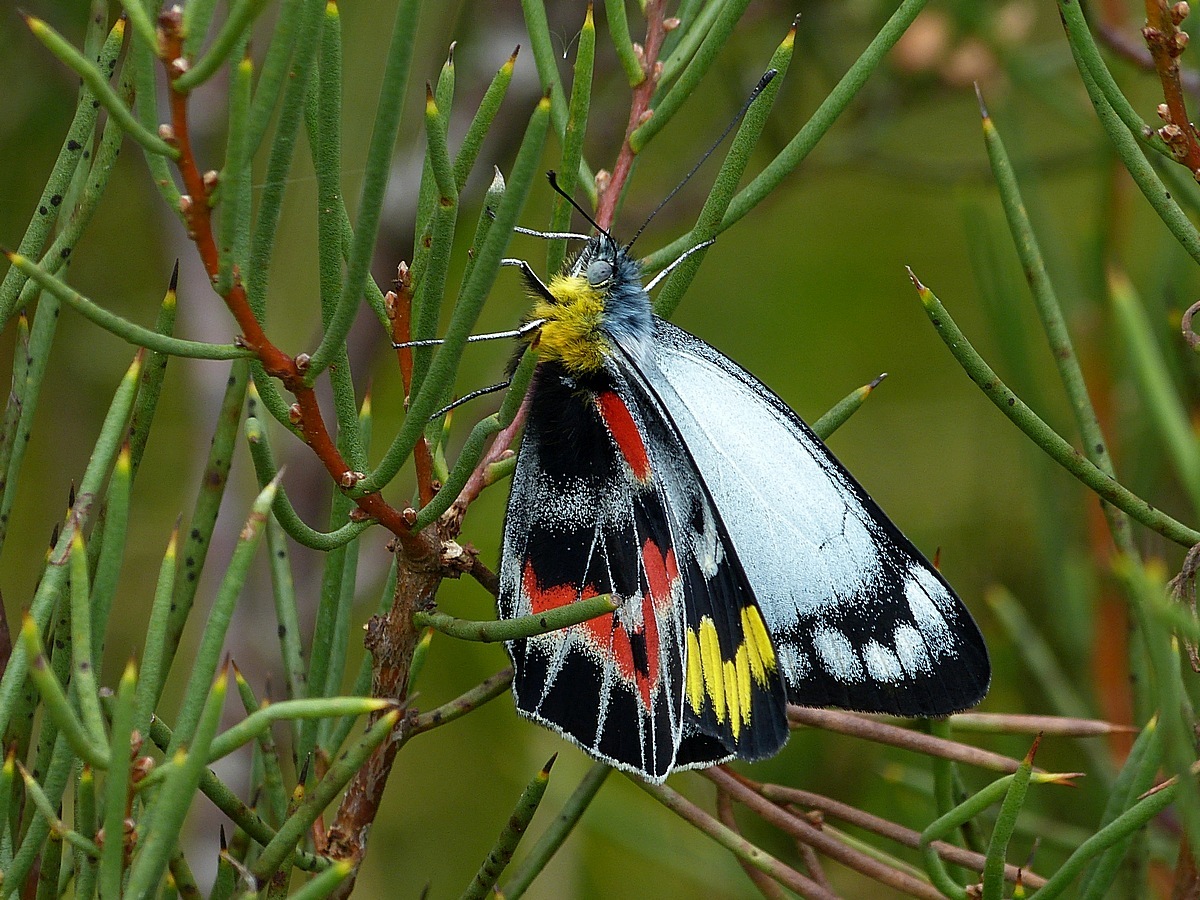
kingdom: Animalia
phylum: Arthropoda
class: Insecta
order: Lepidoptera
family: Pieridae
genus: Delias
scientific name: Delias harpalyce
